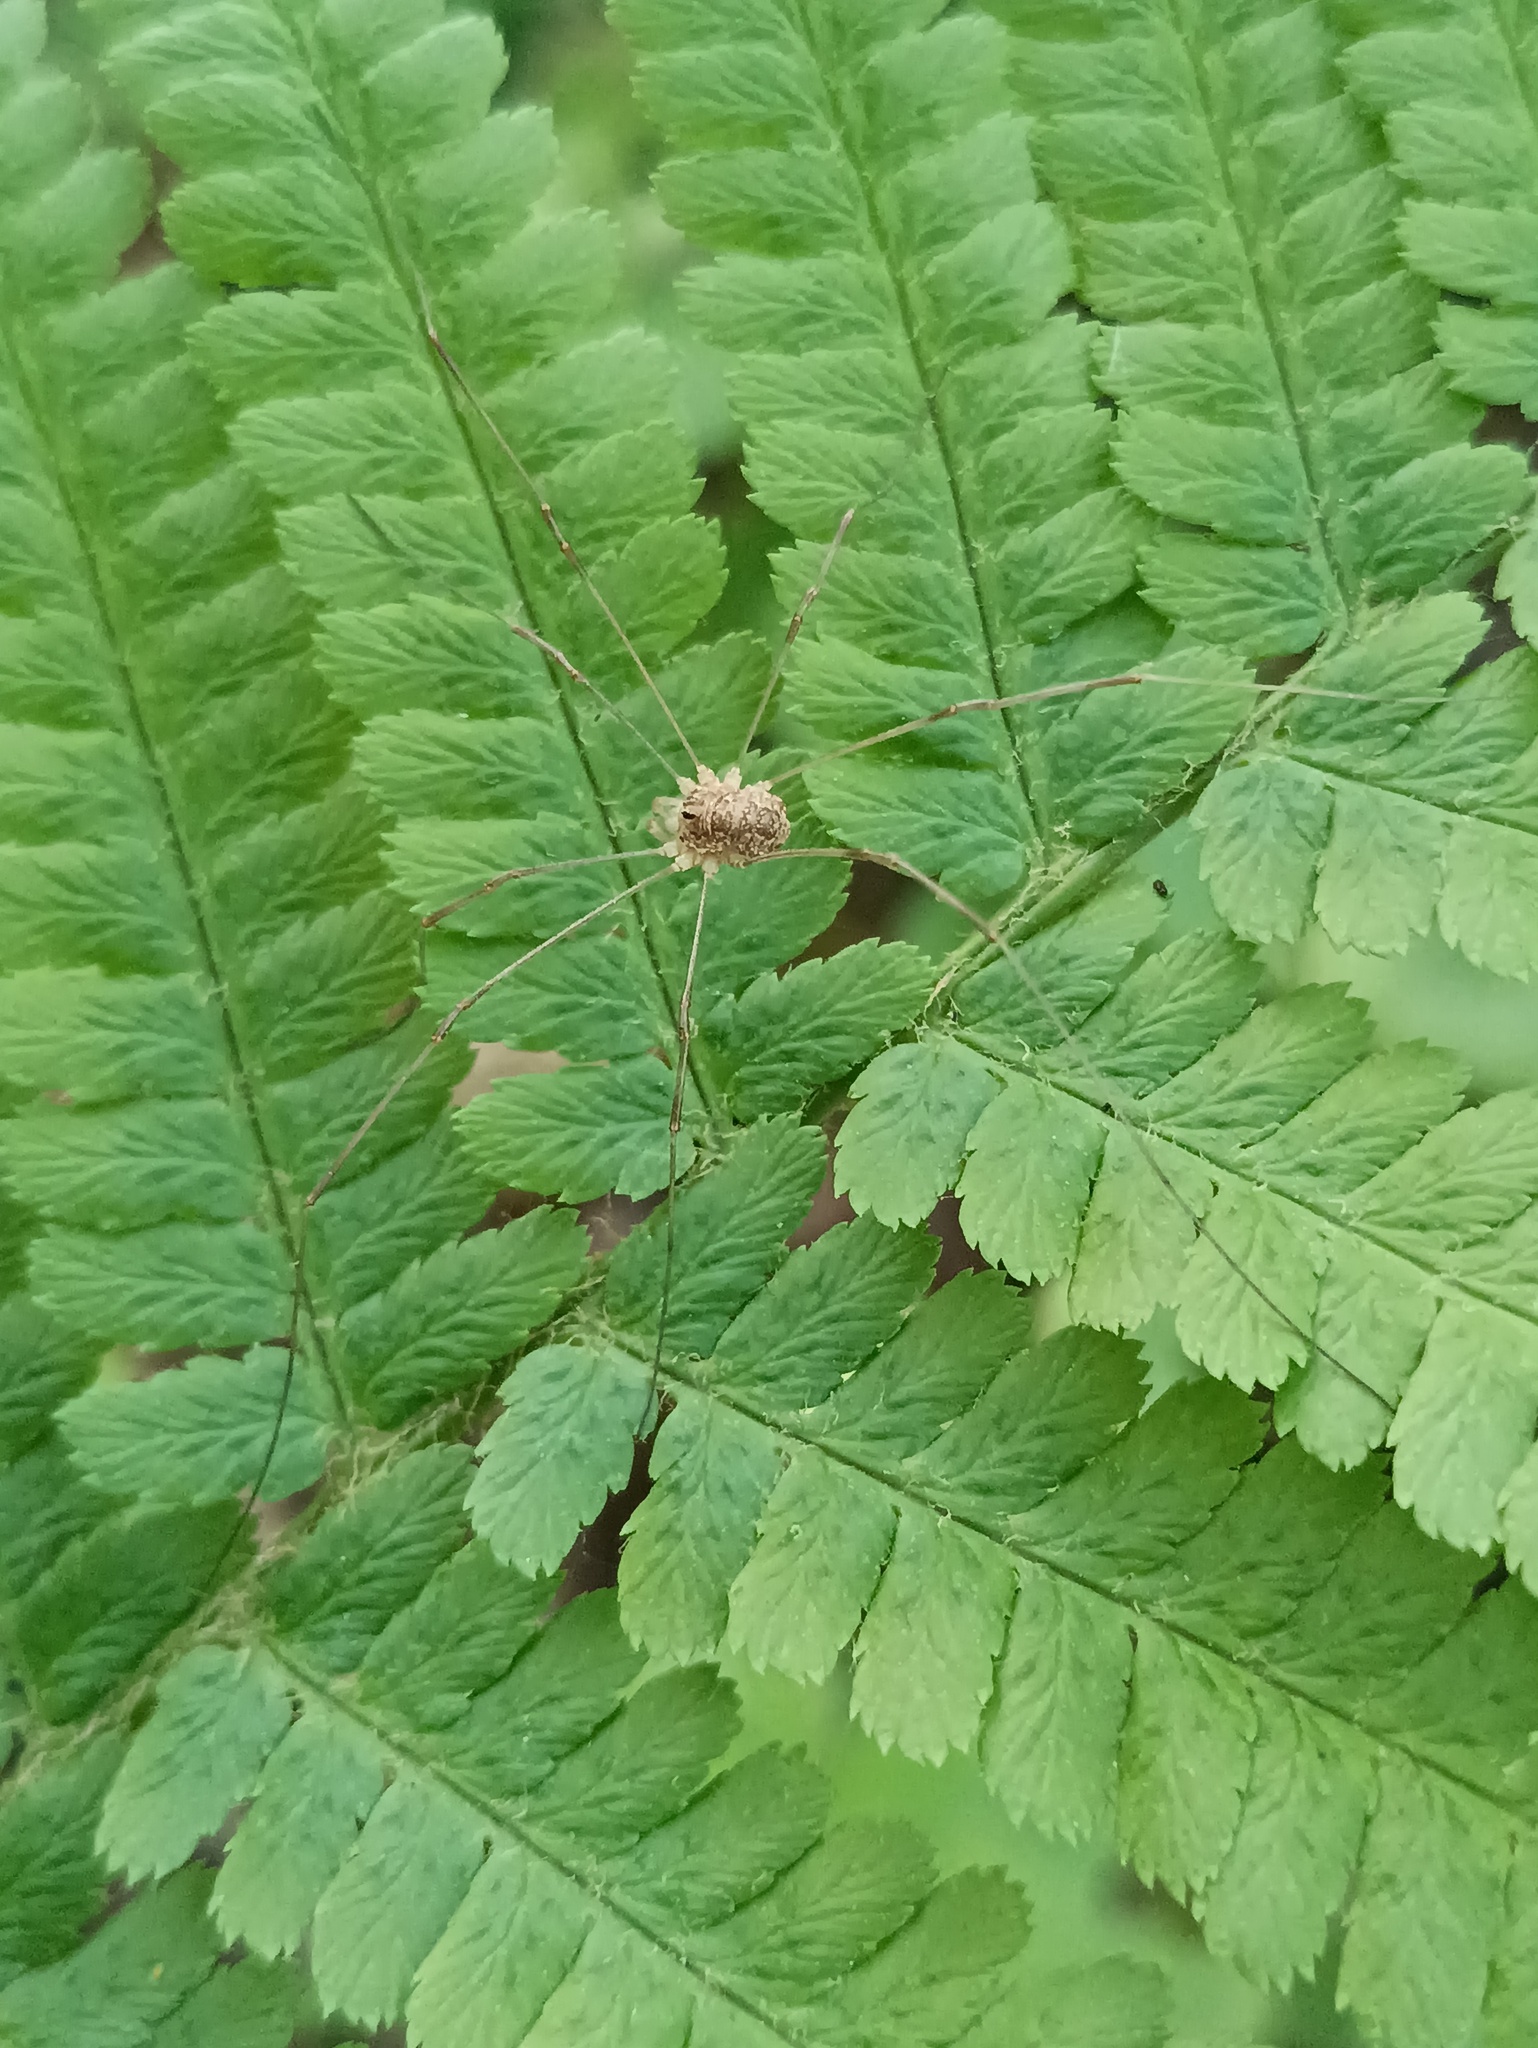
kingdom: Animalia
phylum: Arthropoda
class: Arachnida
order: Opiliones
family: Phalangiidae
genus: Rilaena
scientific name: Rilaena triangularis
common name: Spring harvestman
